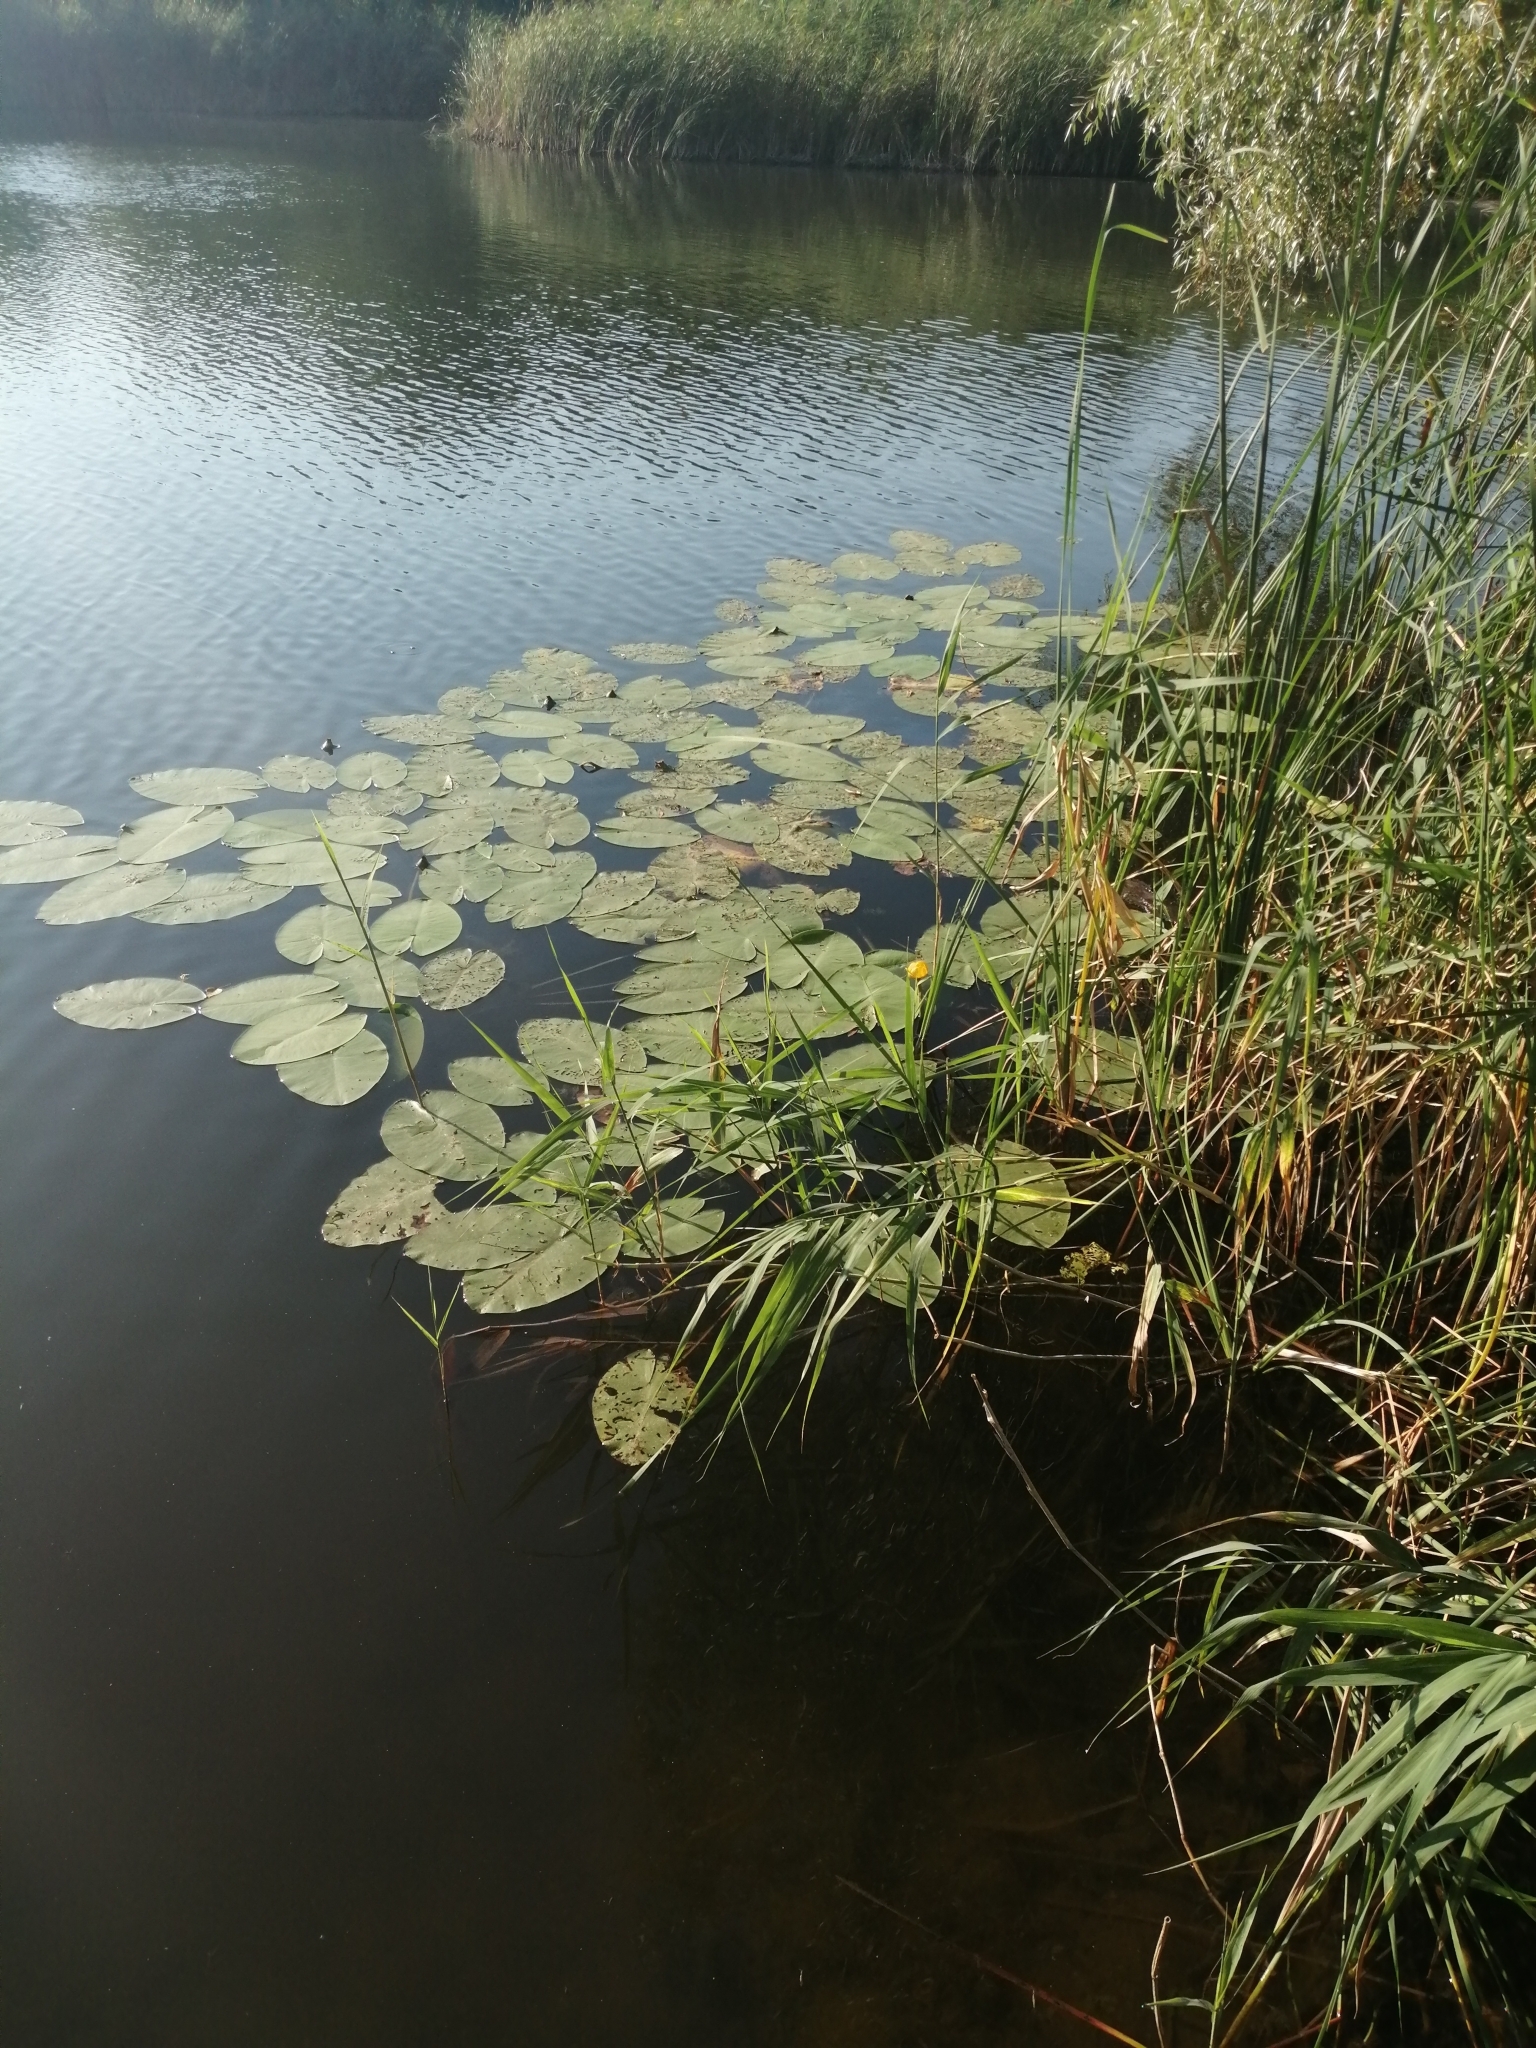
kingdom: Plantae
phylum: Tracheophyta
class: Magnoliopsida
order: Nymphaeales
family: Nymphaeaceae
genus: Nuphar
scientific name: Nuphar lutea
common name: Yellow water-lily
